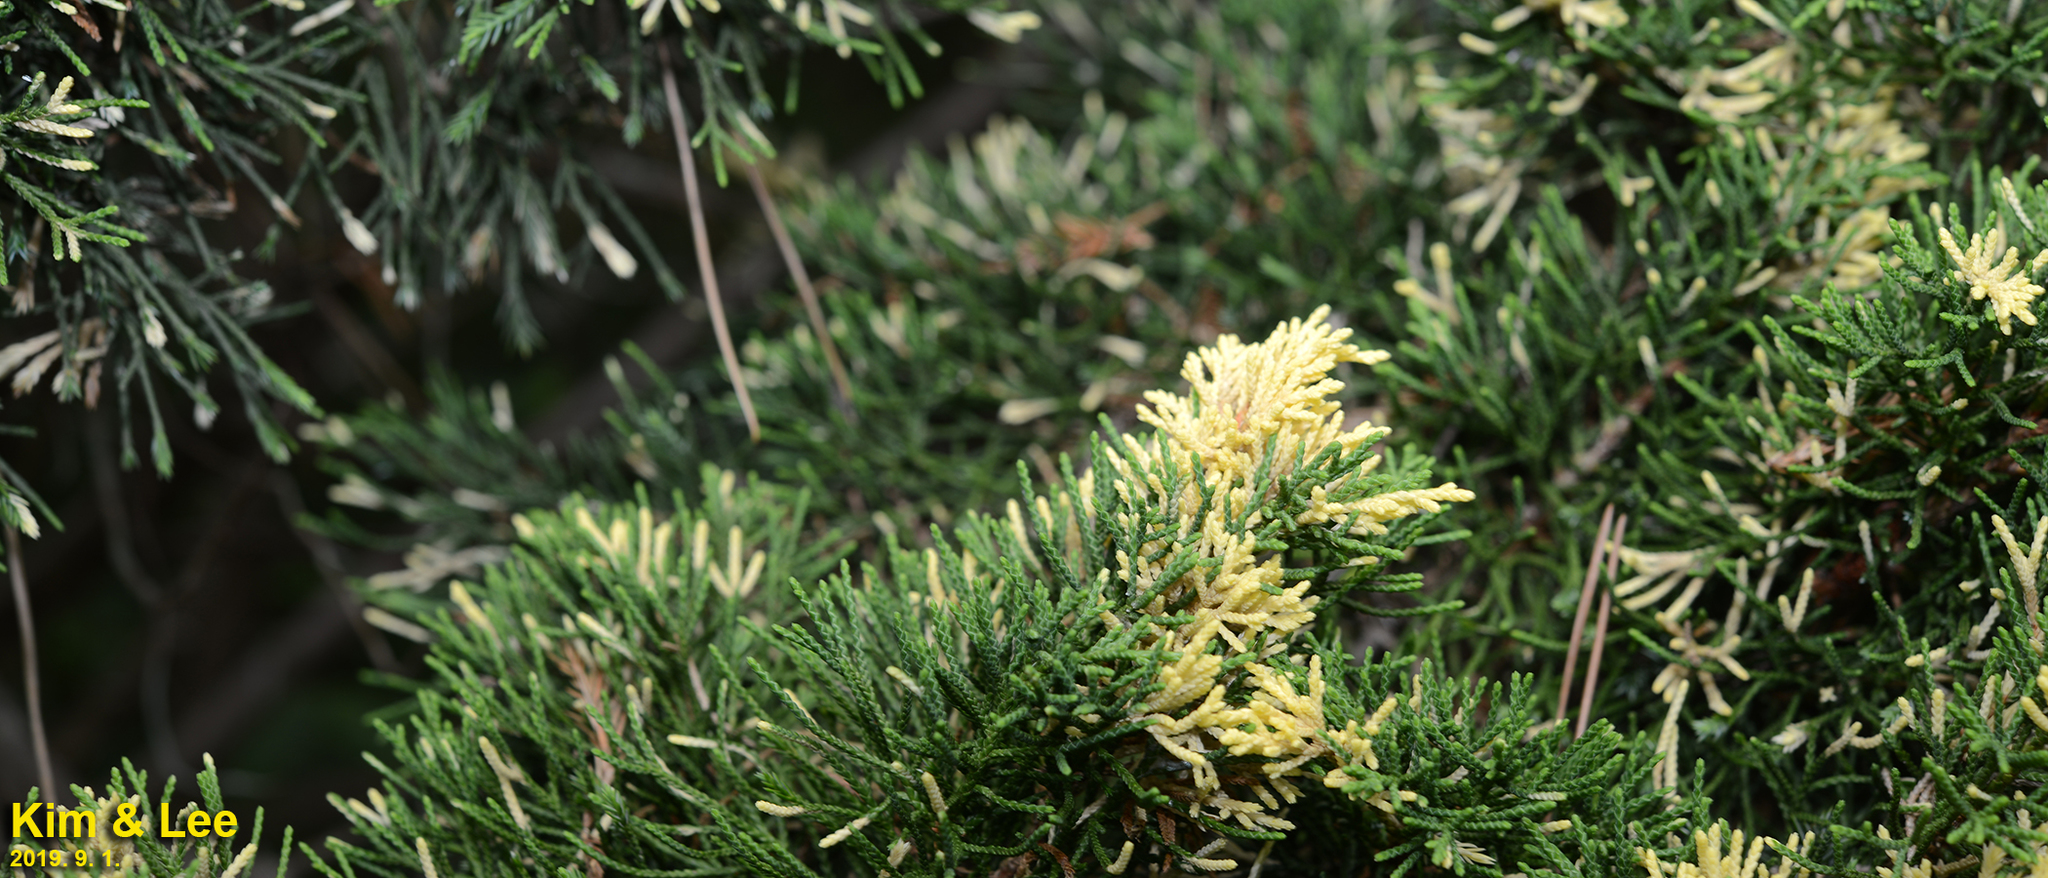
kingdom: Plantae
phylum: Tracheophyta
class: Pinopsida
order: Pinales
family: Cupressaceae
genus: Juniperus
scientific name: Juniperus chinensis
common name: Chinese juniper
